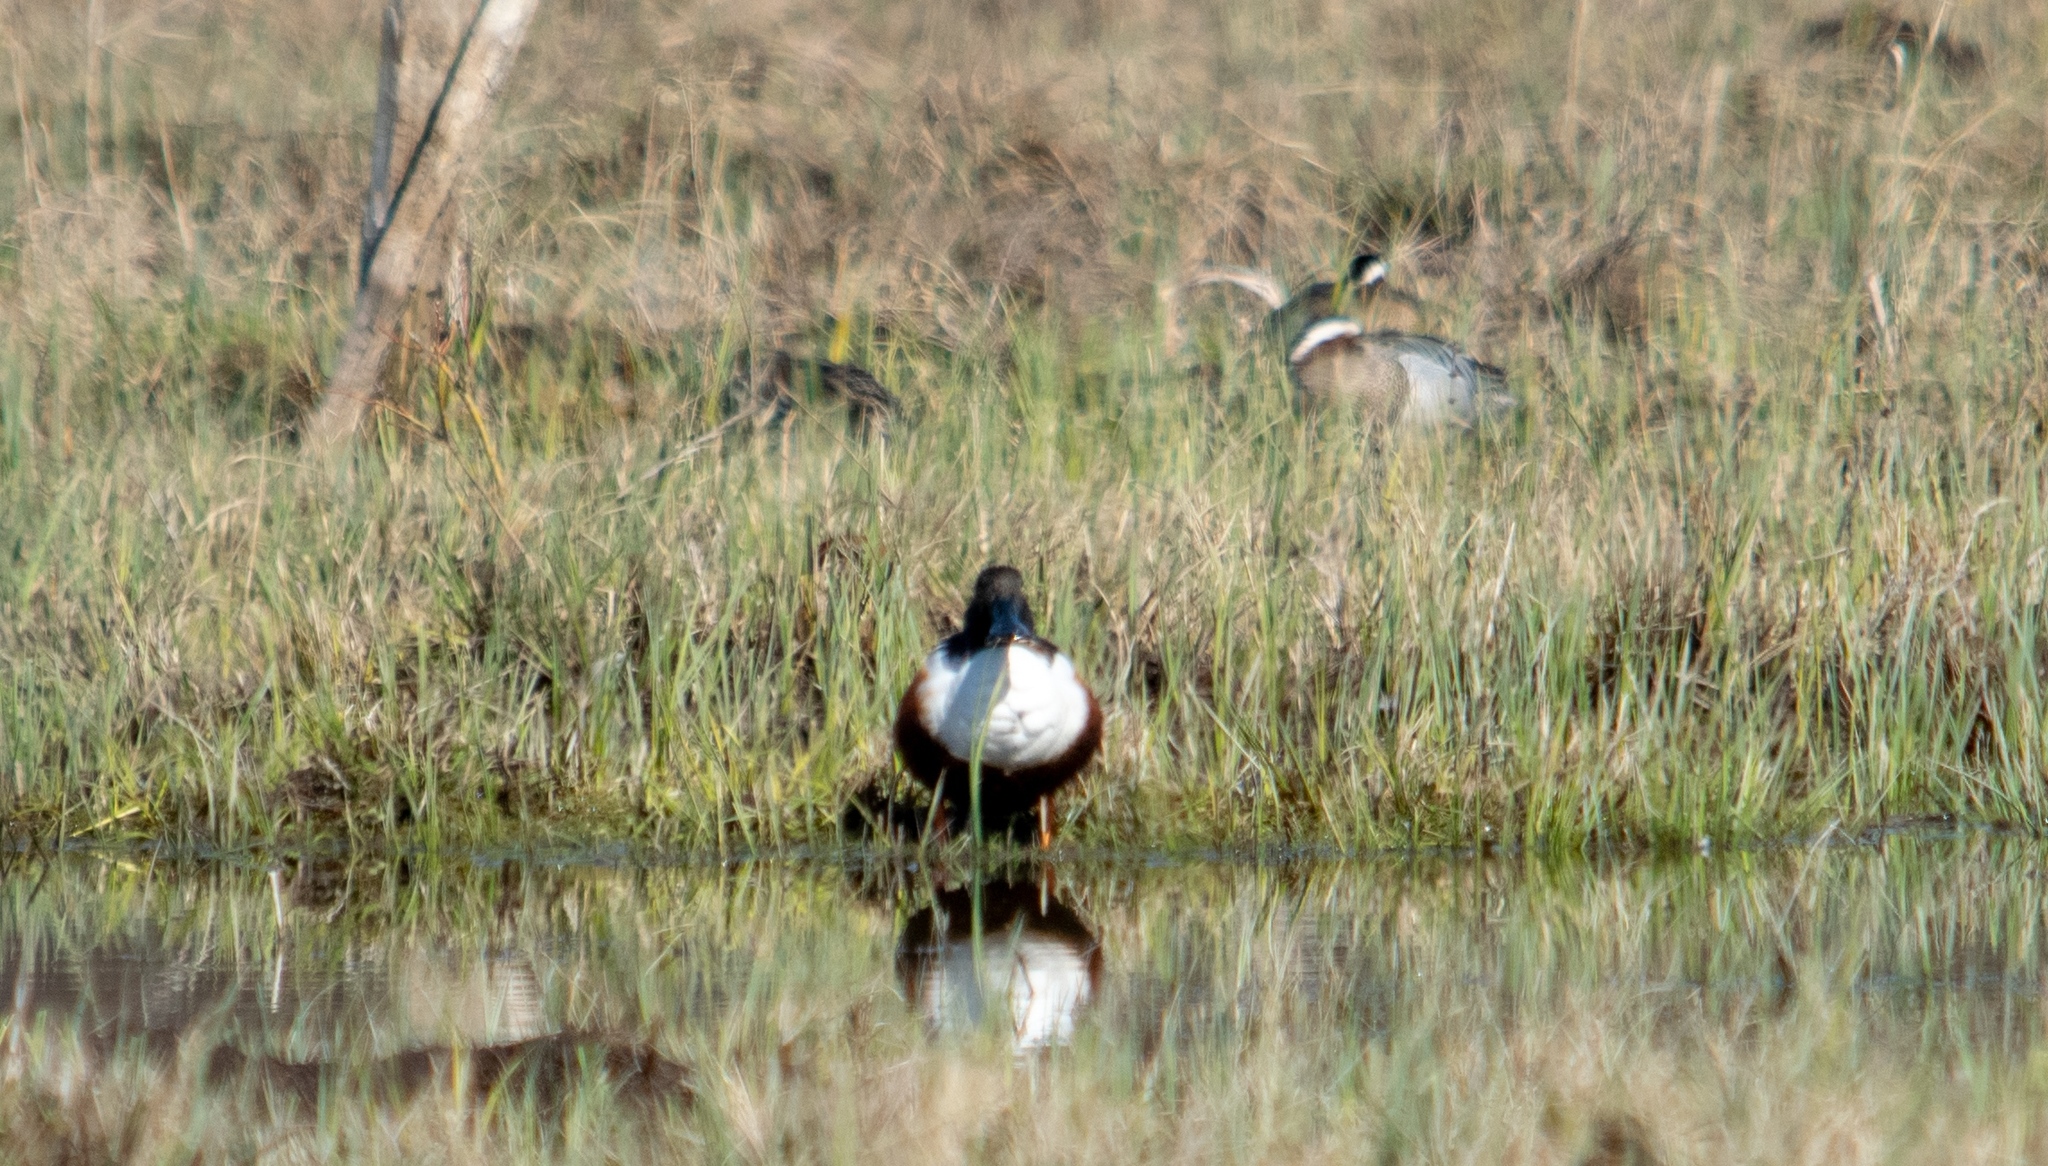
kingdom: Animalia
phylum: Chordata
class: Aves
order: Anseriformes
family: Anatidae
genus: Spatula
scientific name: Spatula clypeata
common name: Northern shoveler
